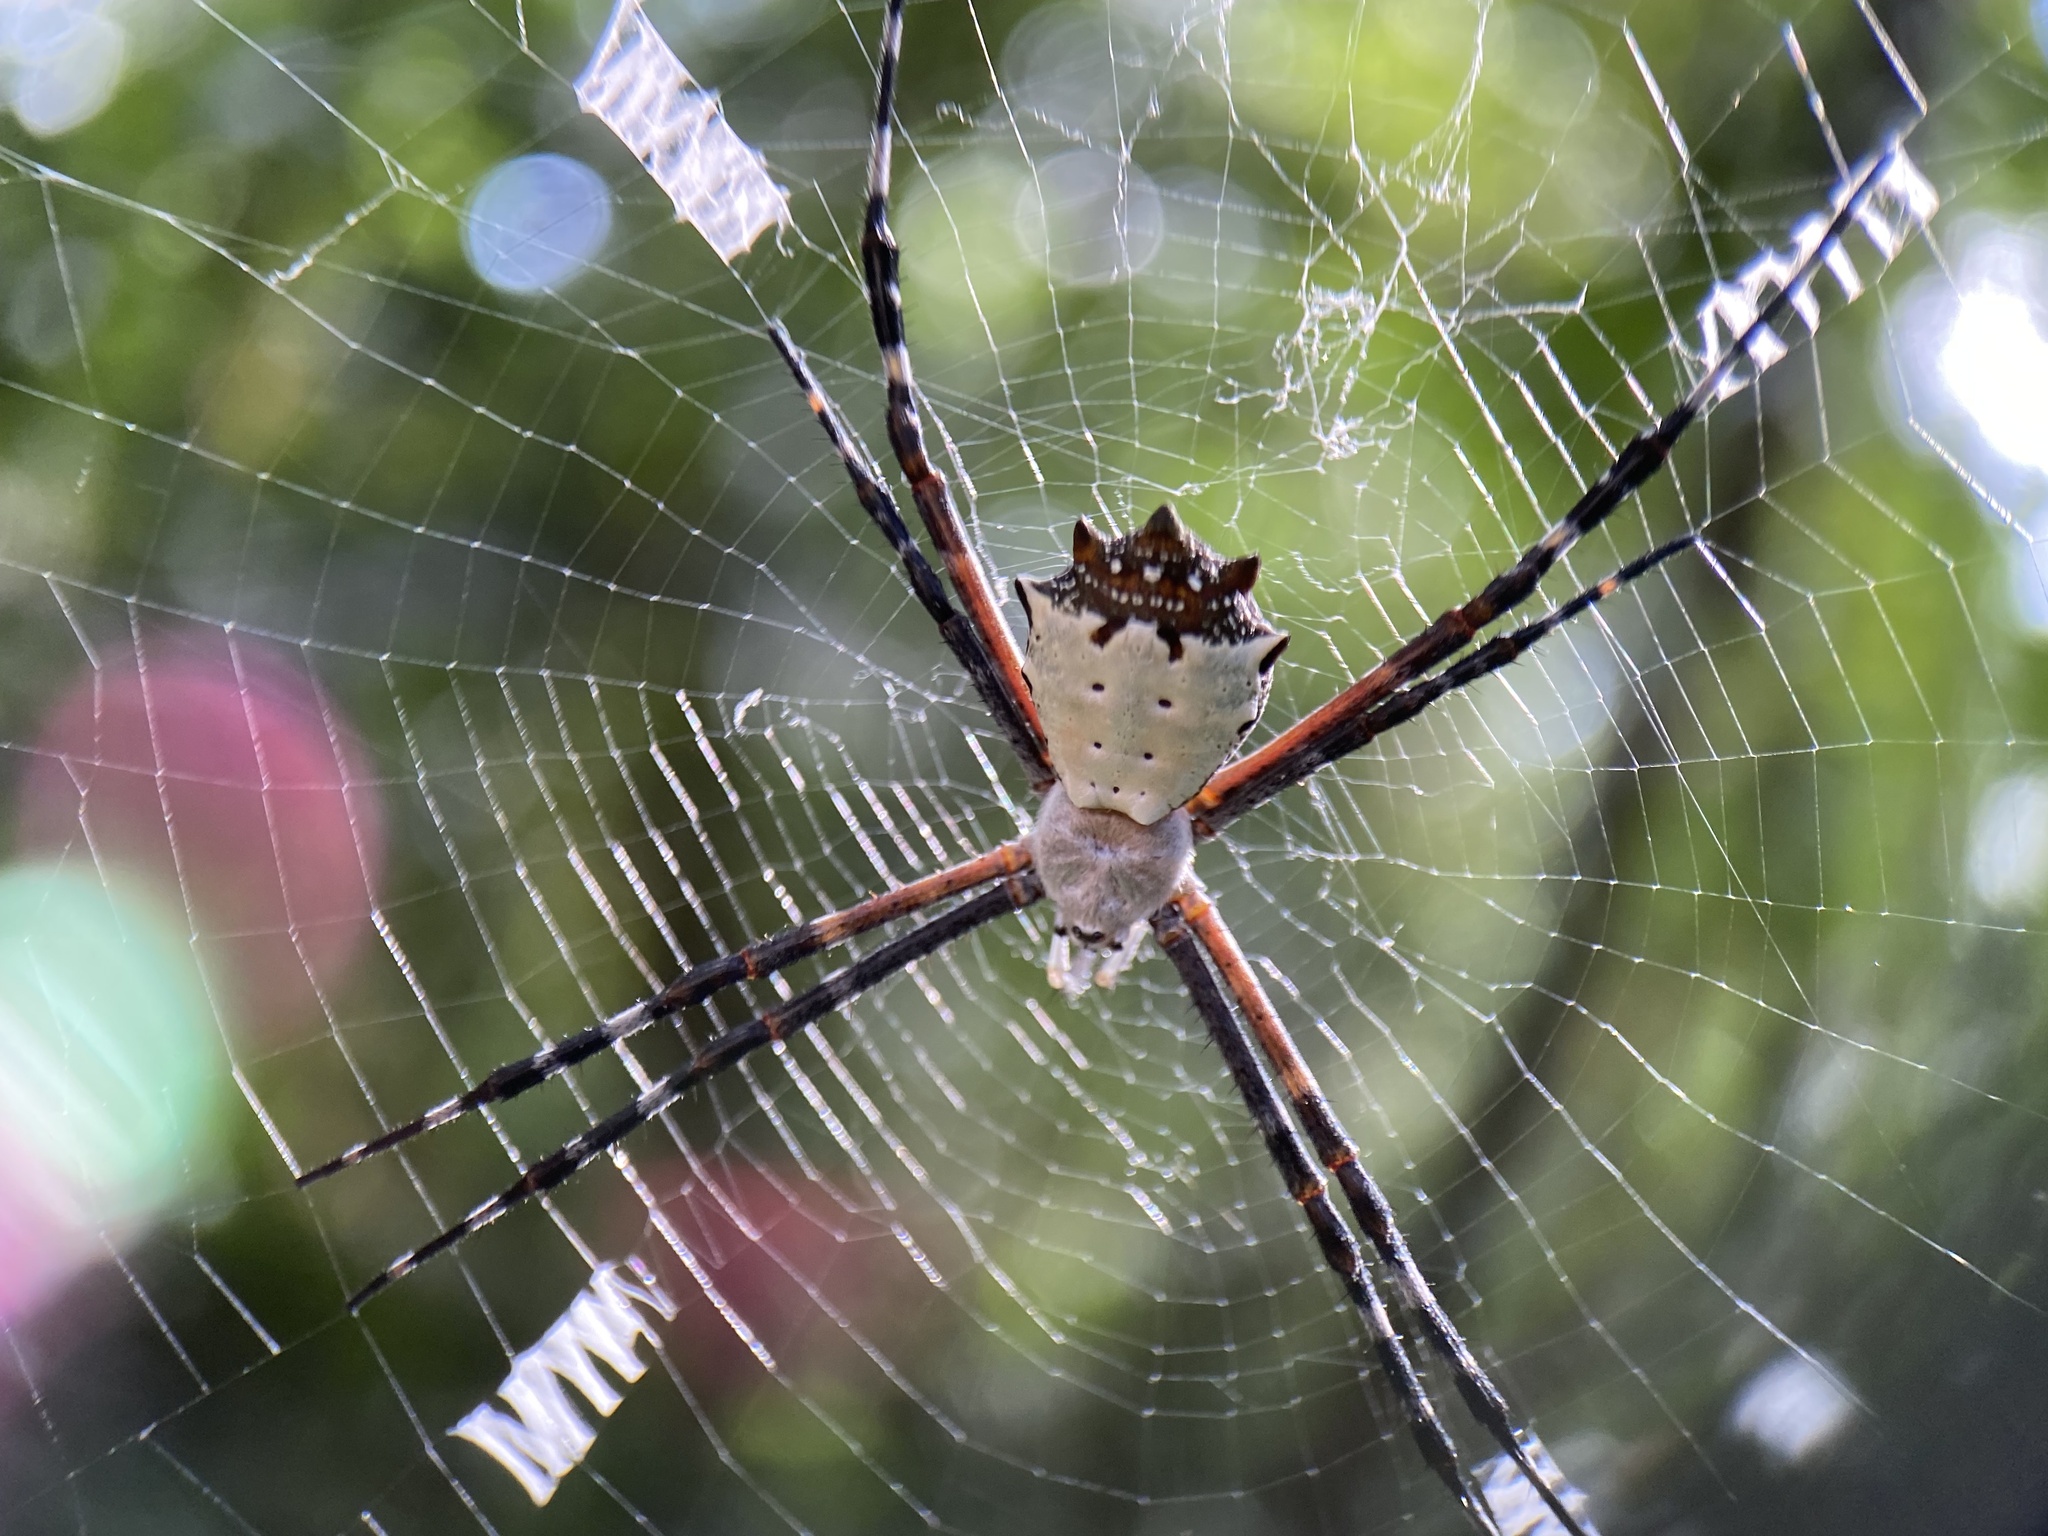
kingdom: Animalia
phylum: Arthropoda
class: Arachnida
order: Araneae
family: Araneidae
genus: Argiope
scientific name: Argiope submaronica
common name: Orb weavers
